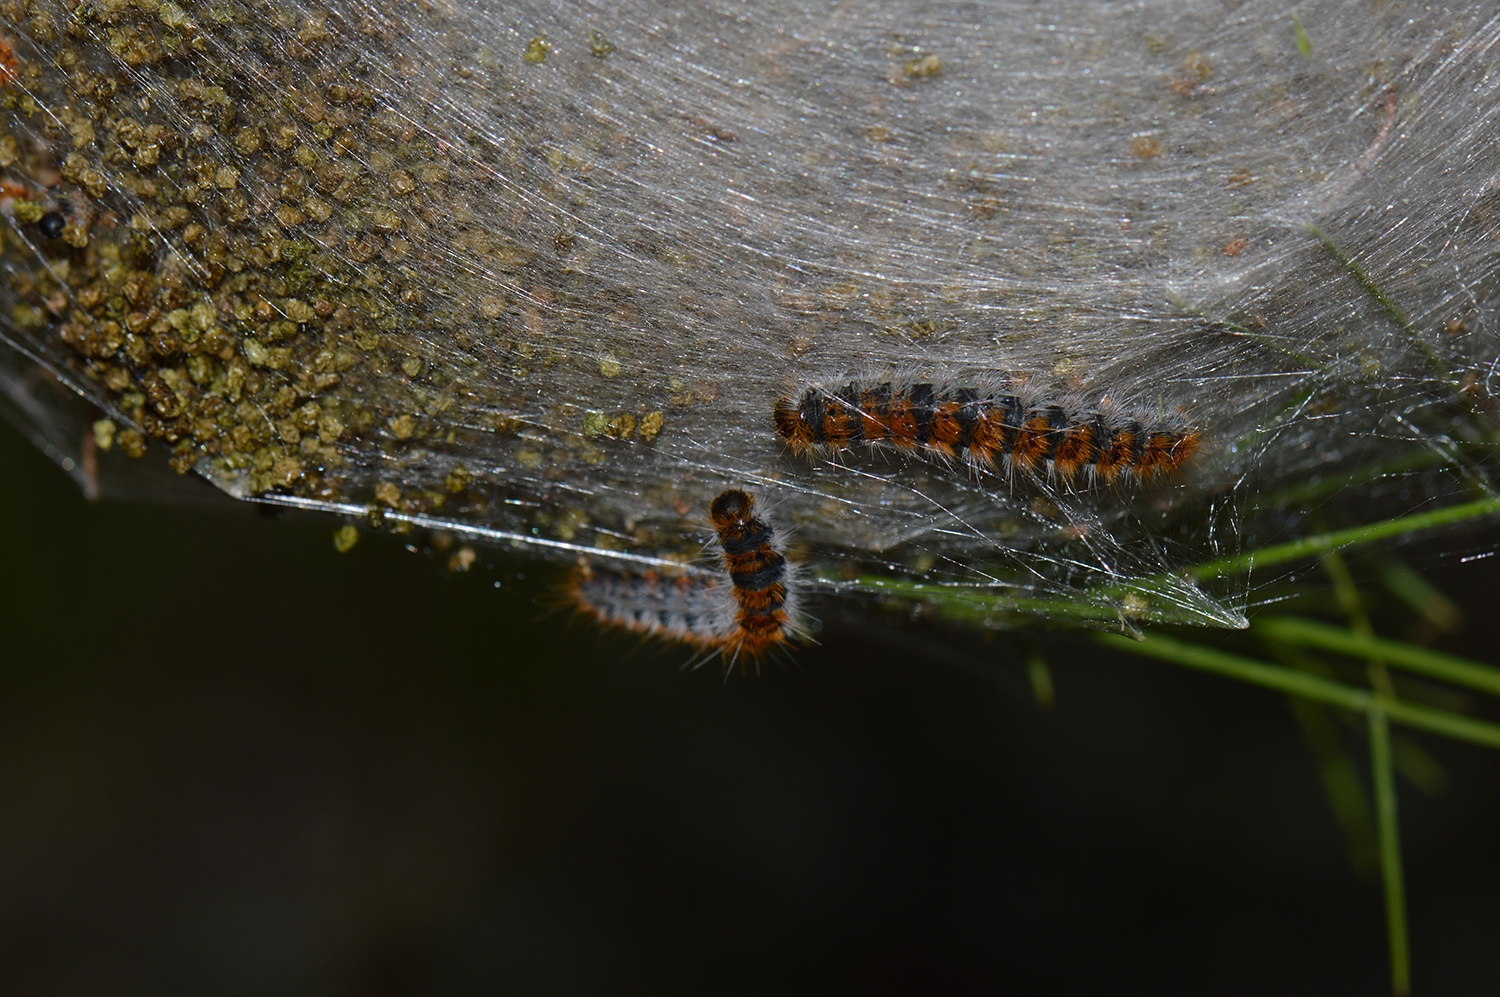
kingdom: Animalia
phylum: Arthropoda
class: Insecta
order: Lepidoptera
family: Notodontidae
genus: Thaumetopoea
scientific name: Thaumetopoea pityocampa
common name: Pine processionary
